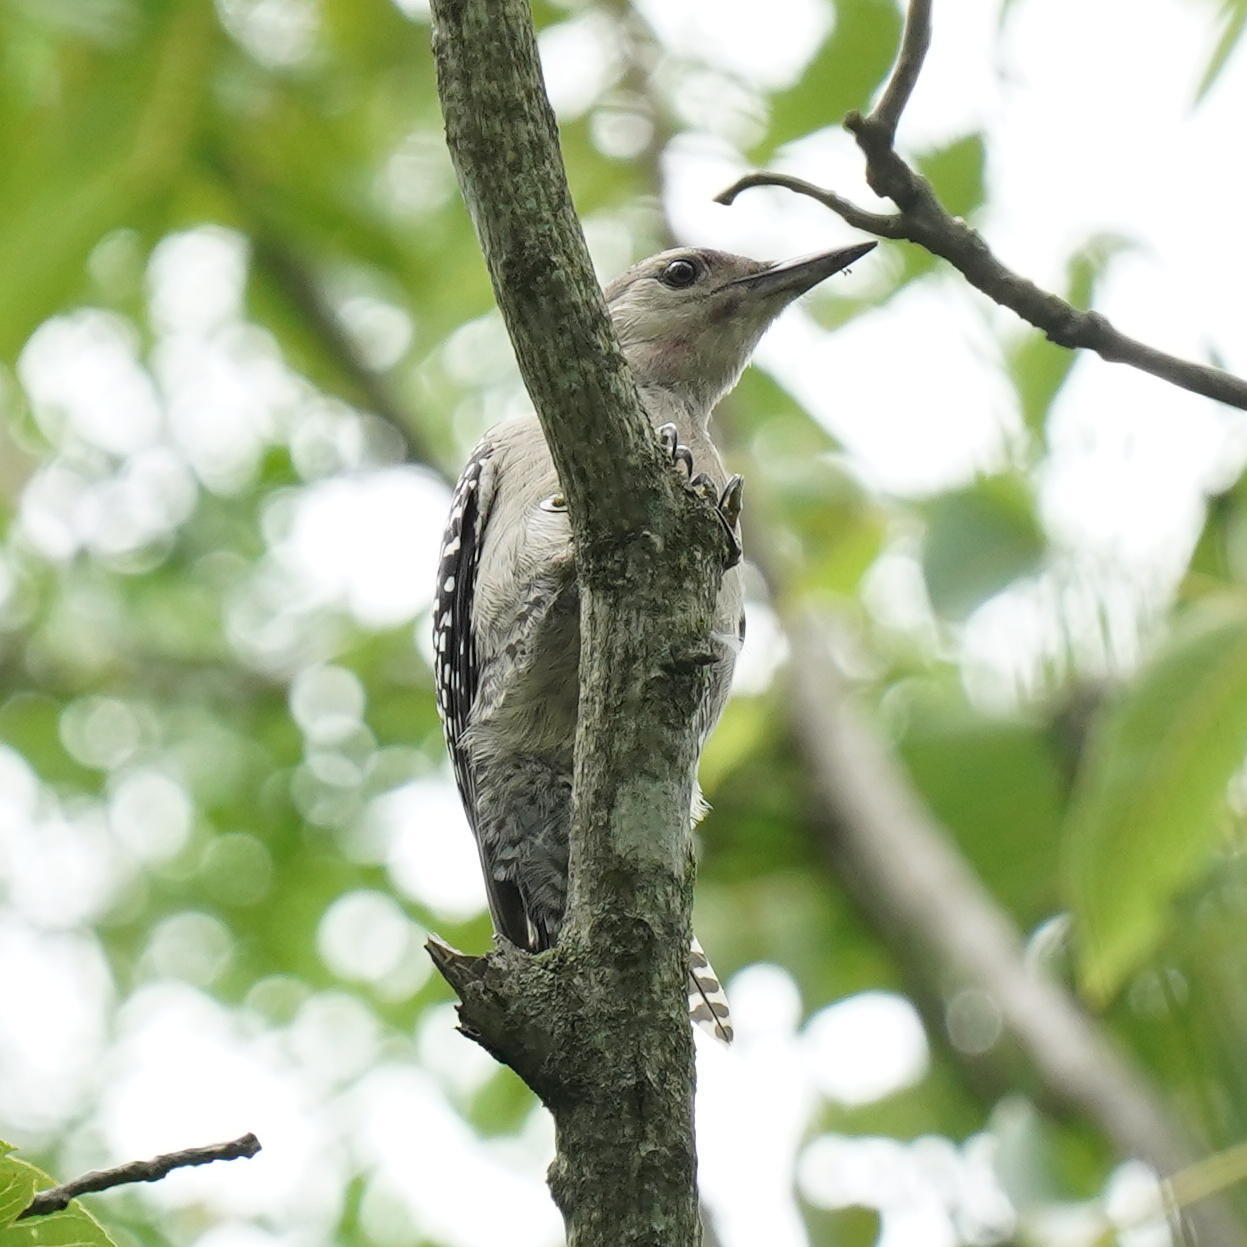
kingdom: Animalia
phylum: Chordata
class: Aves
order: Piciformes
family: Picidae
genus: Melanerpes
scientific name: Melanerpes carolinus
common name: Red-bellied woodpecker
